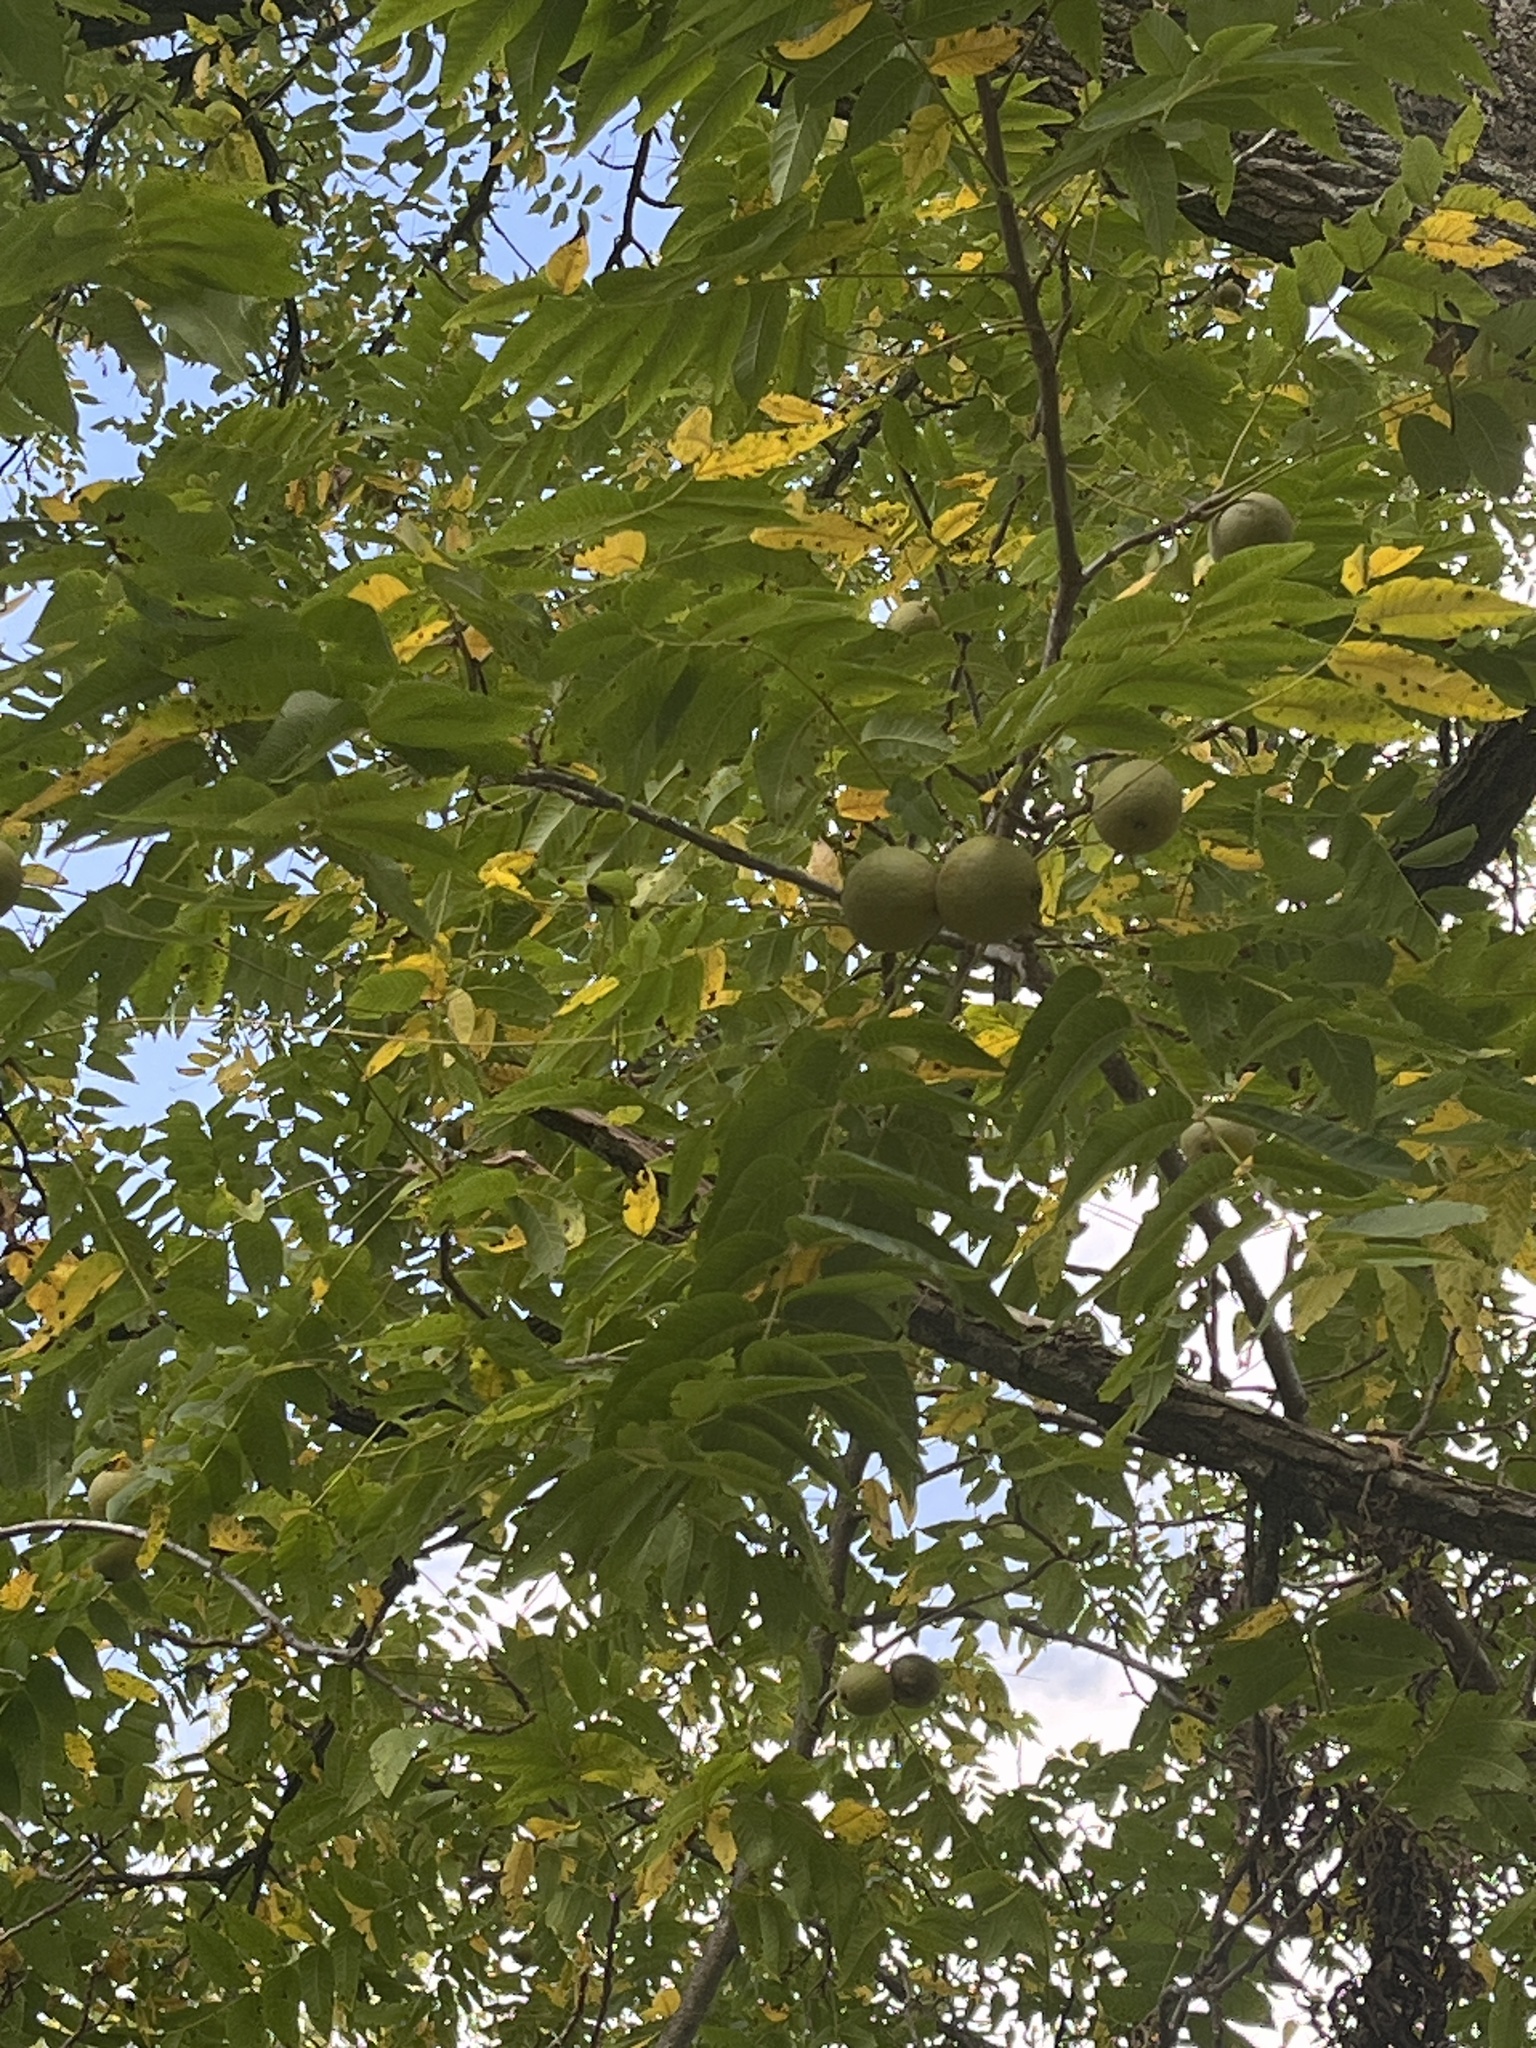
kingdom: Plantae
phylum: Tracheophyta
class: Magnoliopsida
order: Fagales
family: Juglandaceae
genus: Juglans
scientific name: Juglans nigra
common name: Black walnut
